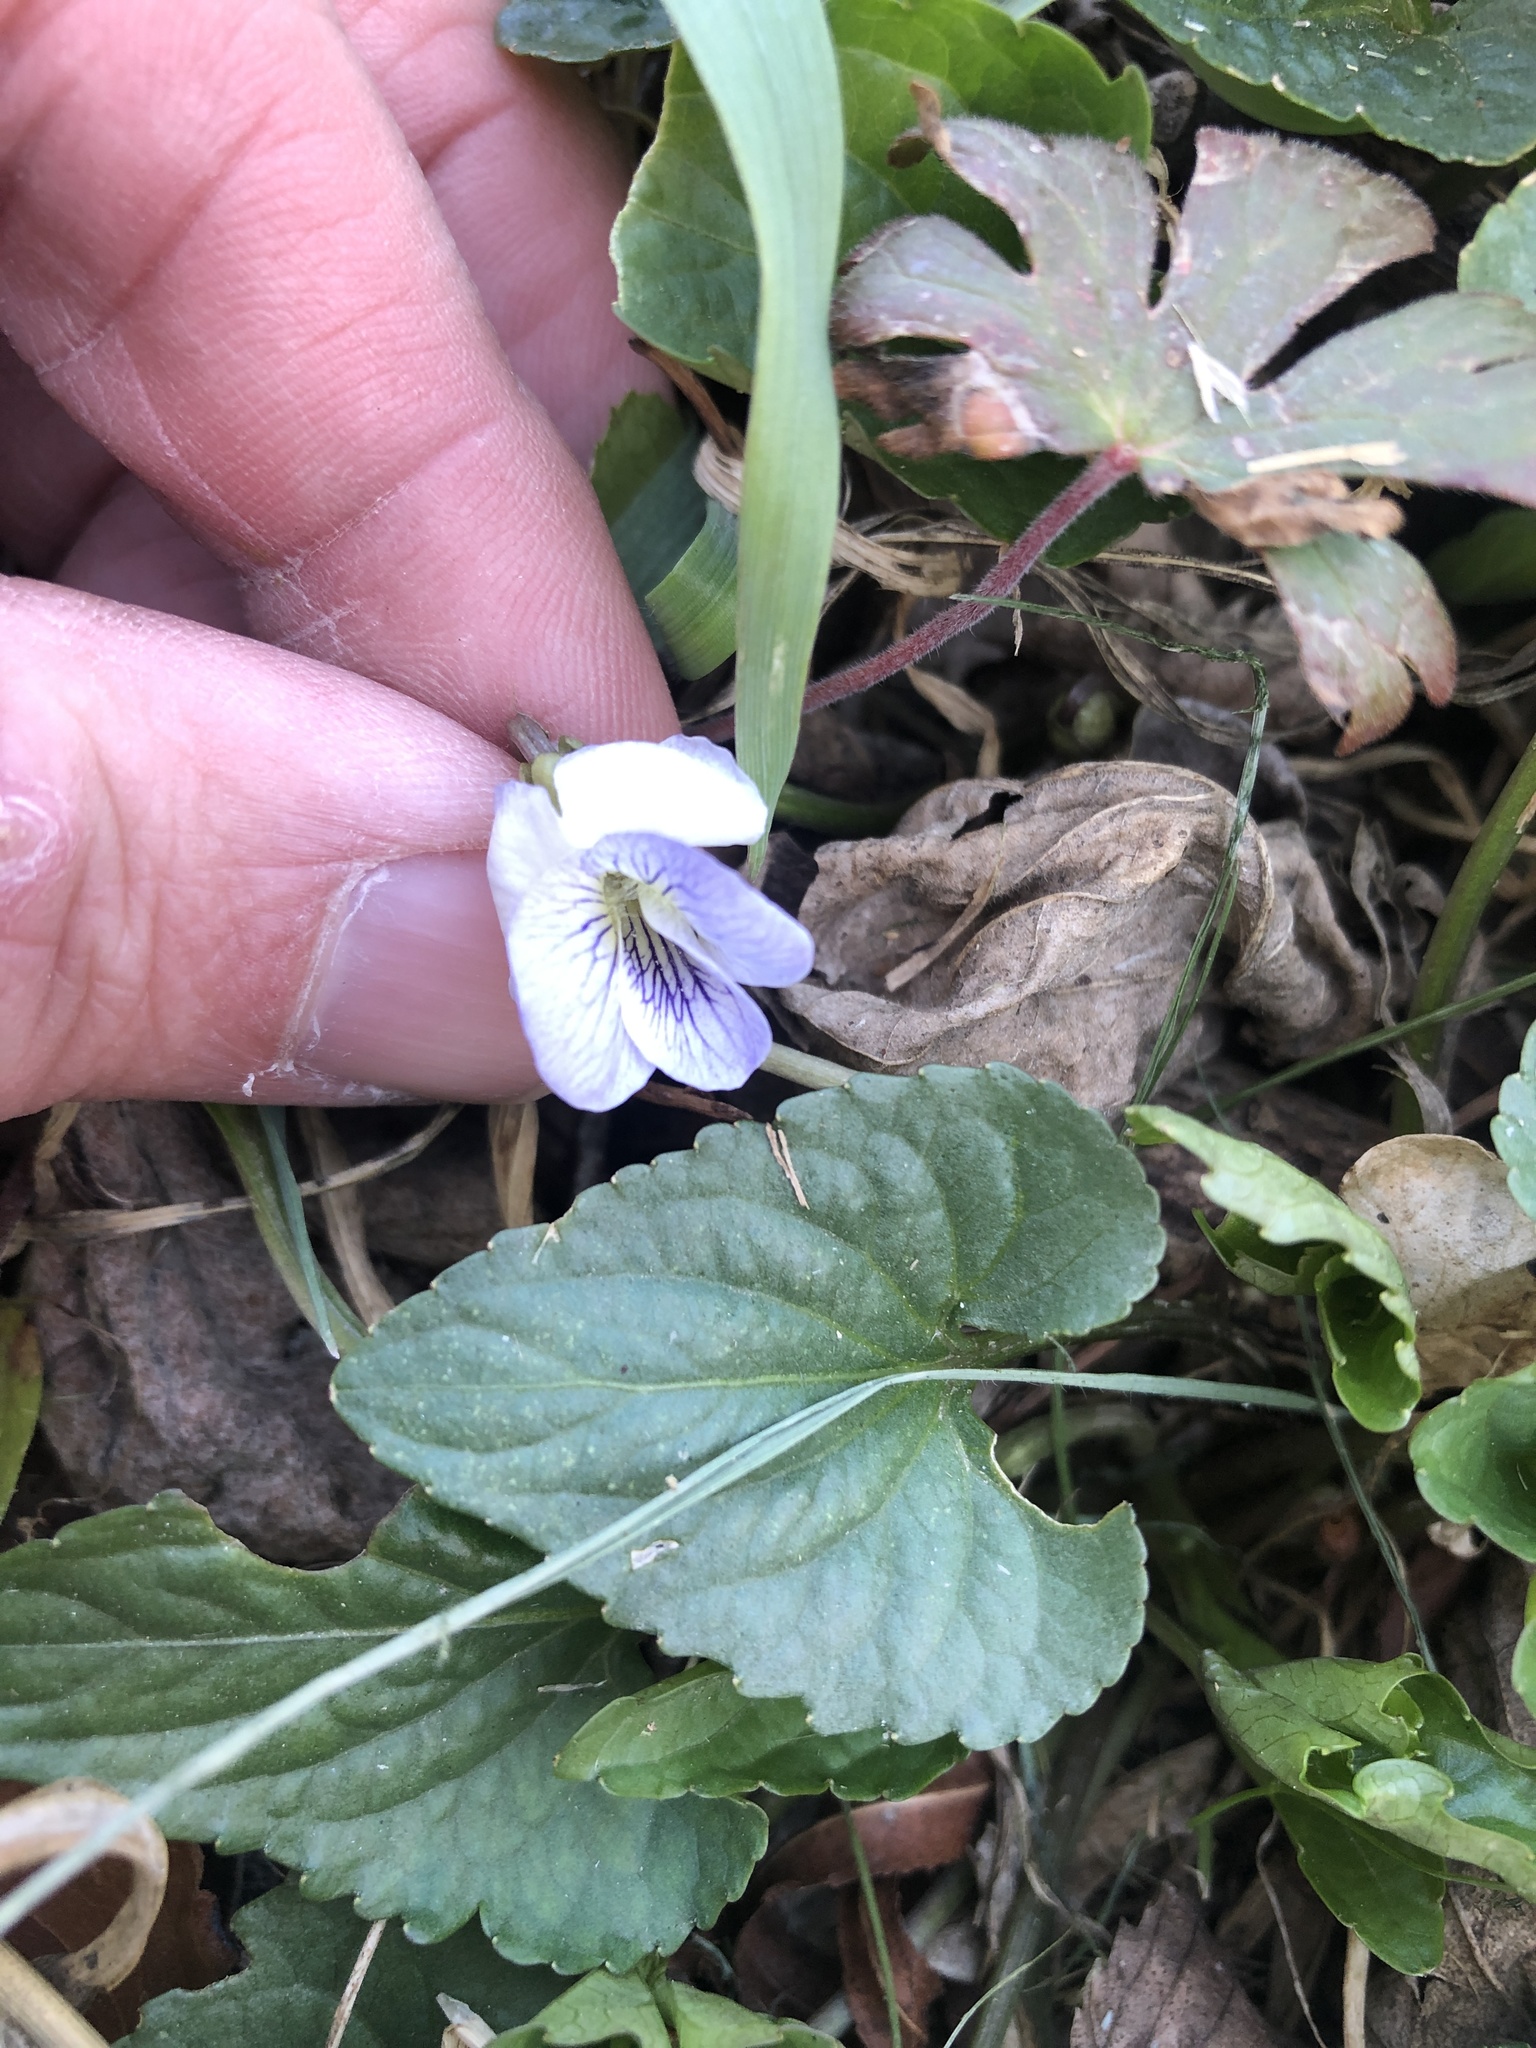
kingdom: Plantae
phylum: Tracheophyta
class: Magnoliopsida
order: Malpighiales
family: Violaceae
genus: Viola
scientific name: Viola missouriensis
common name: Missouri violet
